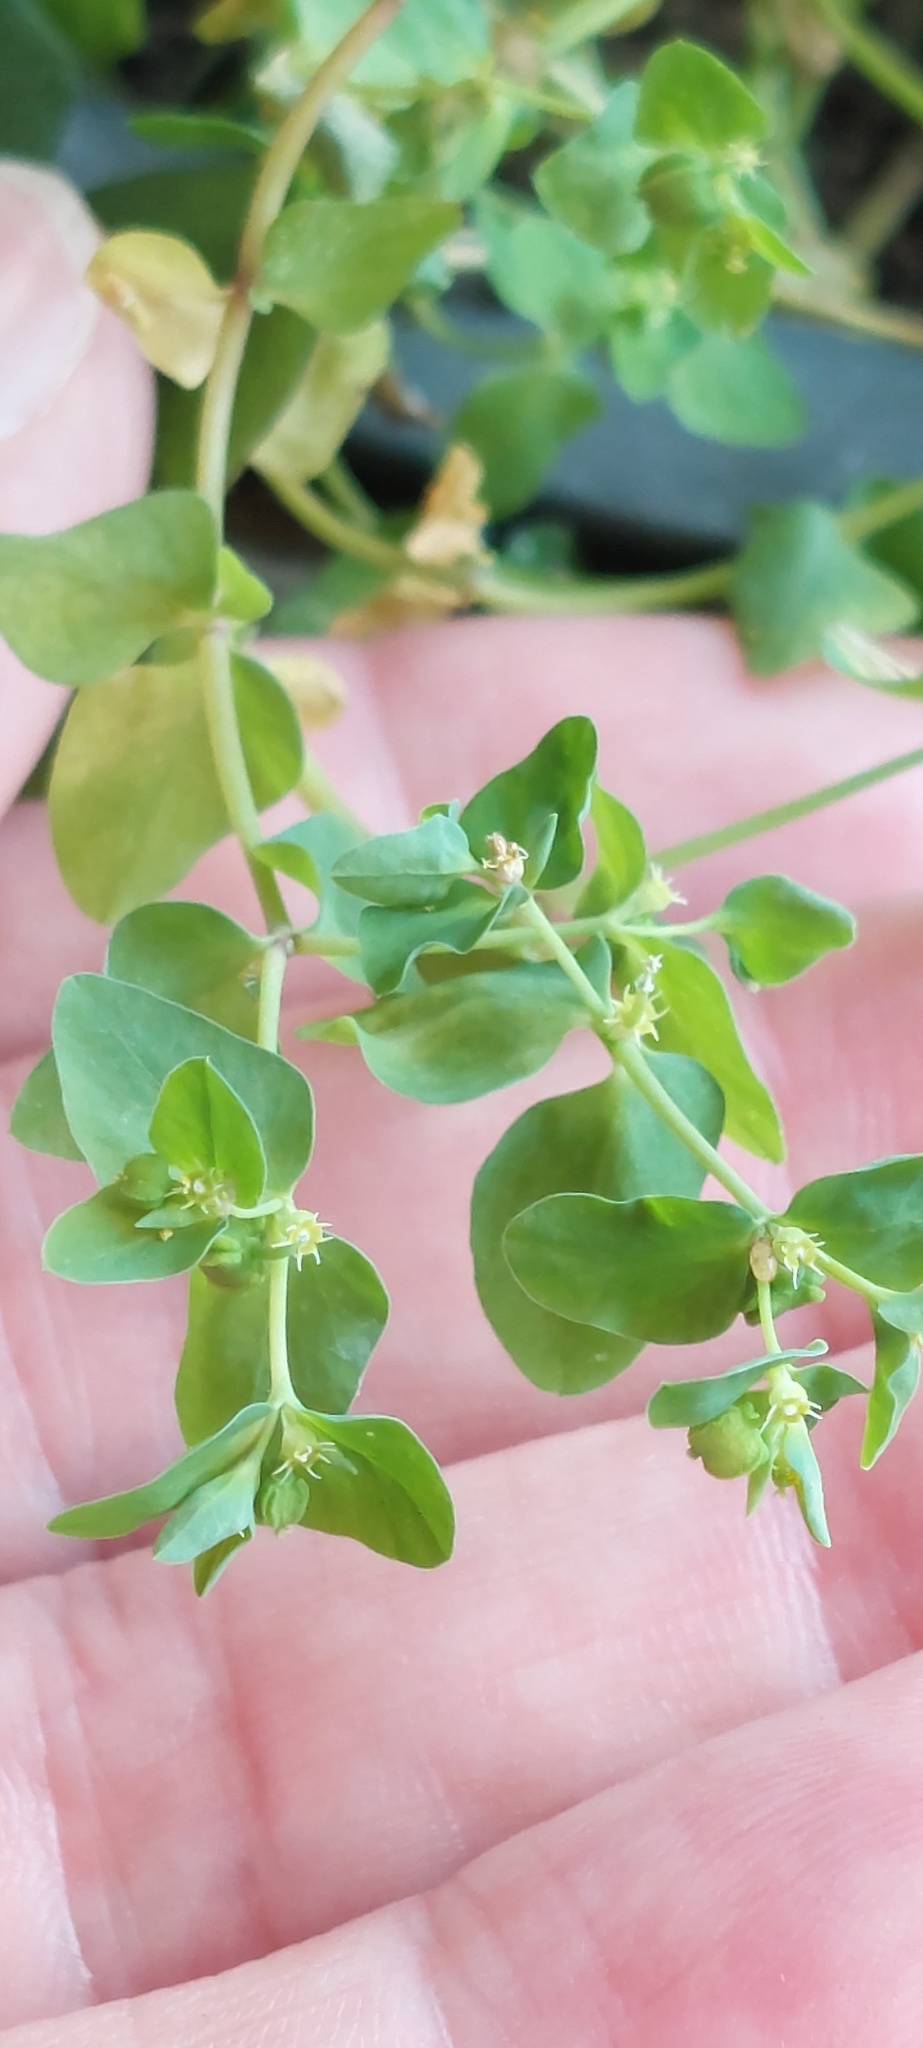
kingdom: Plantae
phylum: Tracheophyta
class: Magnoliopsida
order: Malpighiales
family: Euphorbiaceae
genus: Euphorbia
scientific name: Euphorbia peplus
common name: Petty spurge
